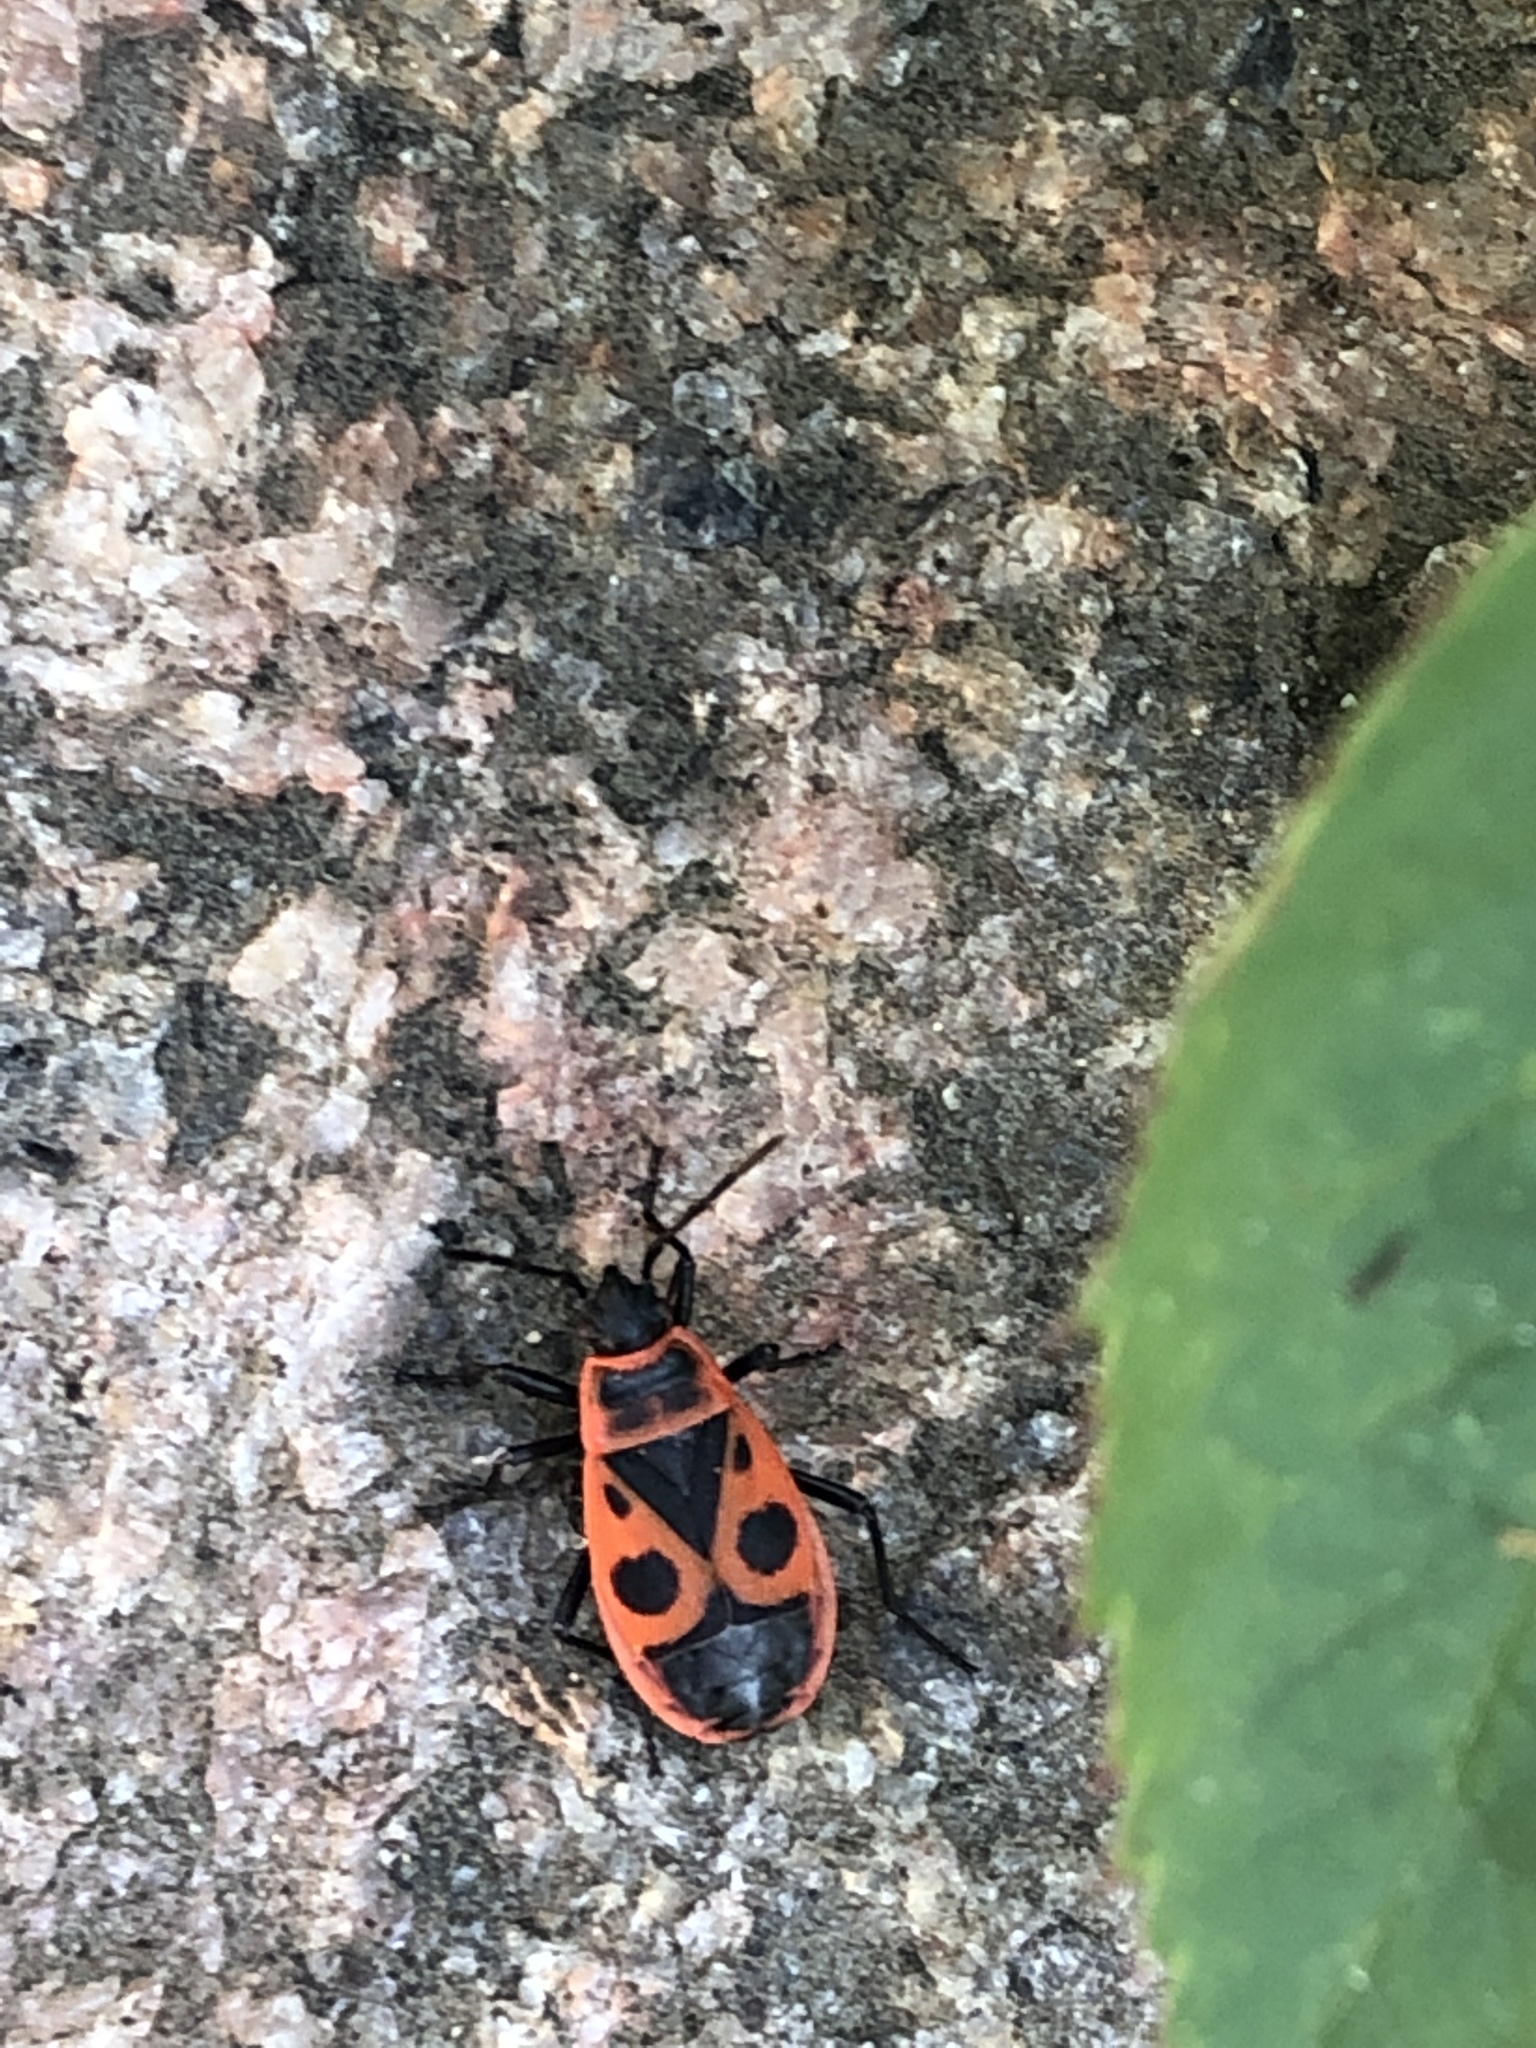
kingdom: Animalia
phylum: Arthropoda
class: Insecta
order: Hemiptera
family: Pyrrhocoridae
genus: Pyrrhocoris
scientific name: Pyrrhocoris apterus
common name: Firebug
